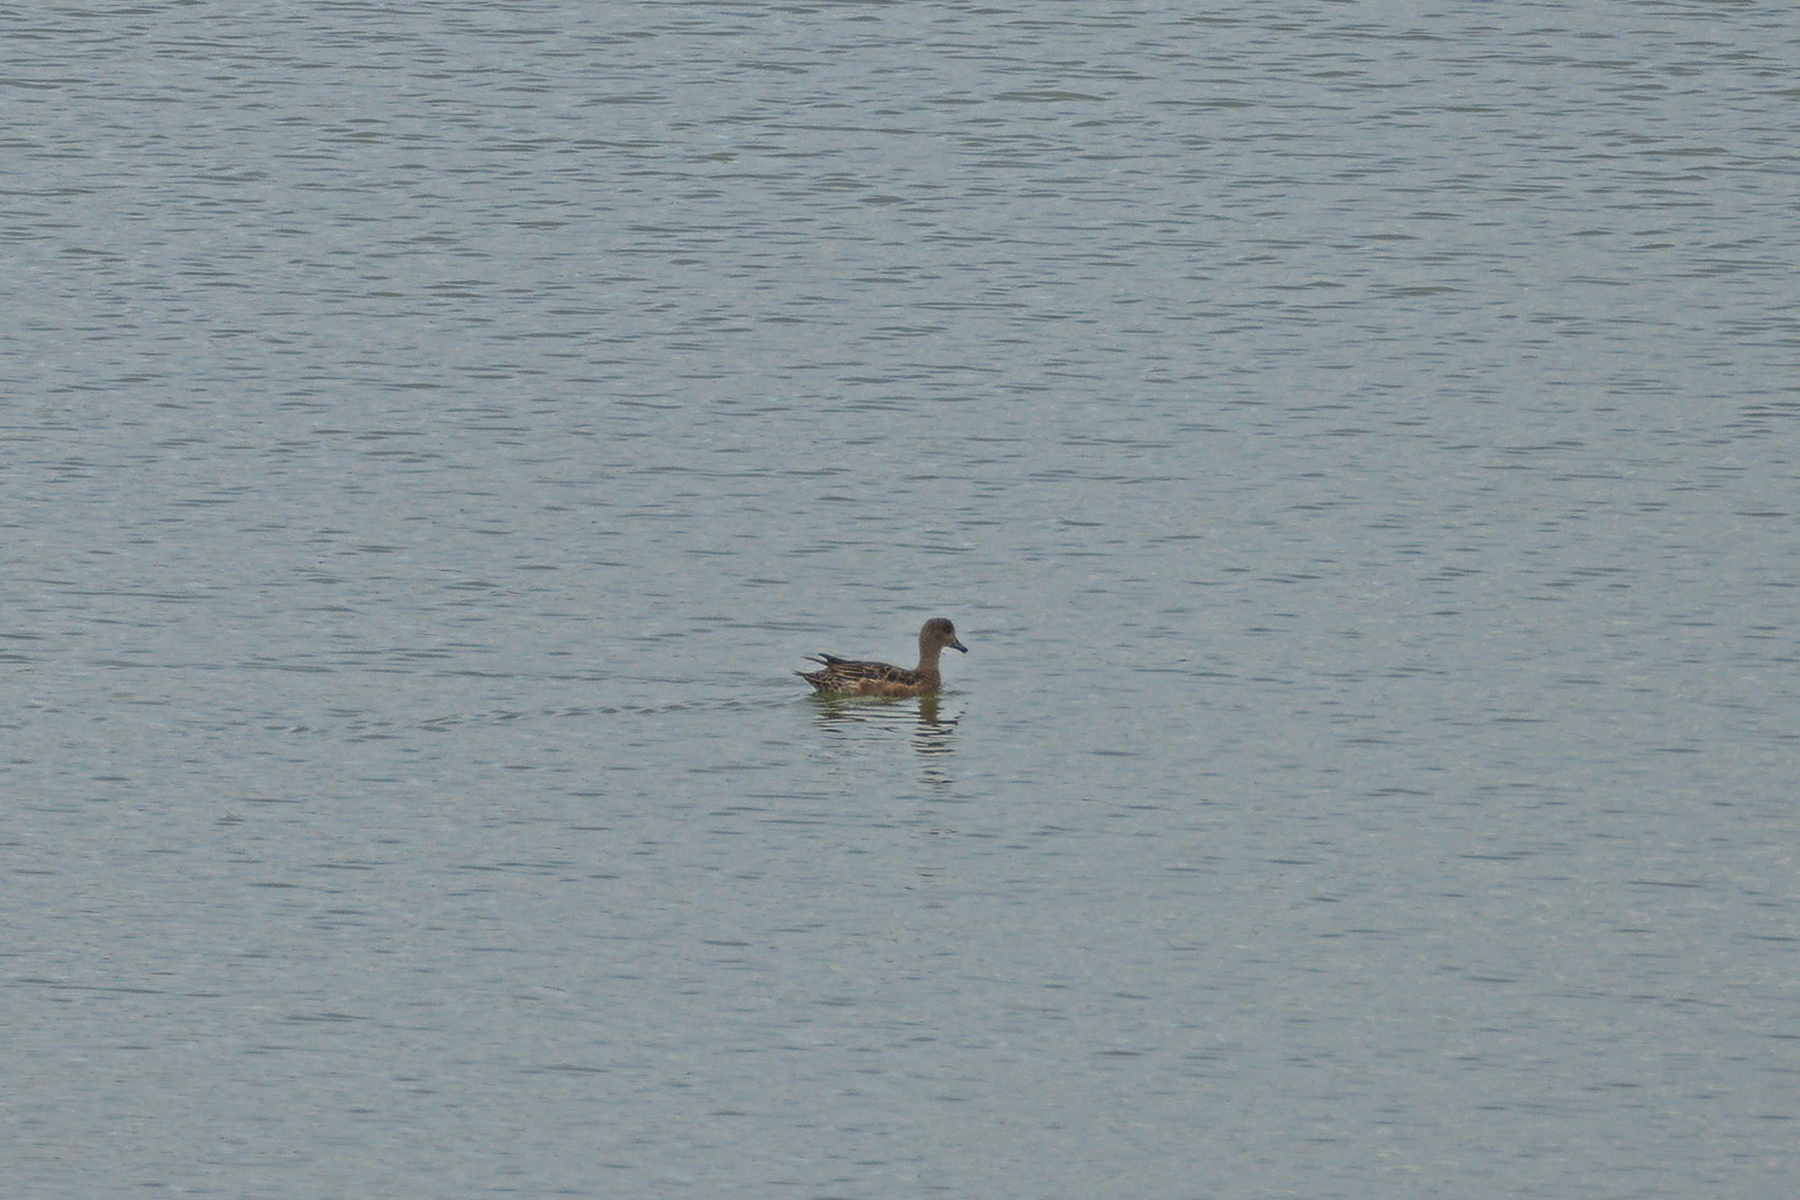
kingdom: Animalia
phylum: Chordata
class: Aves
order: Anseriformes
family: Anatidae
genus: Mareca
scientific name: Mareca penelope
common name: Eurasian wigeon
